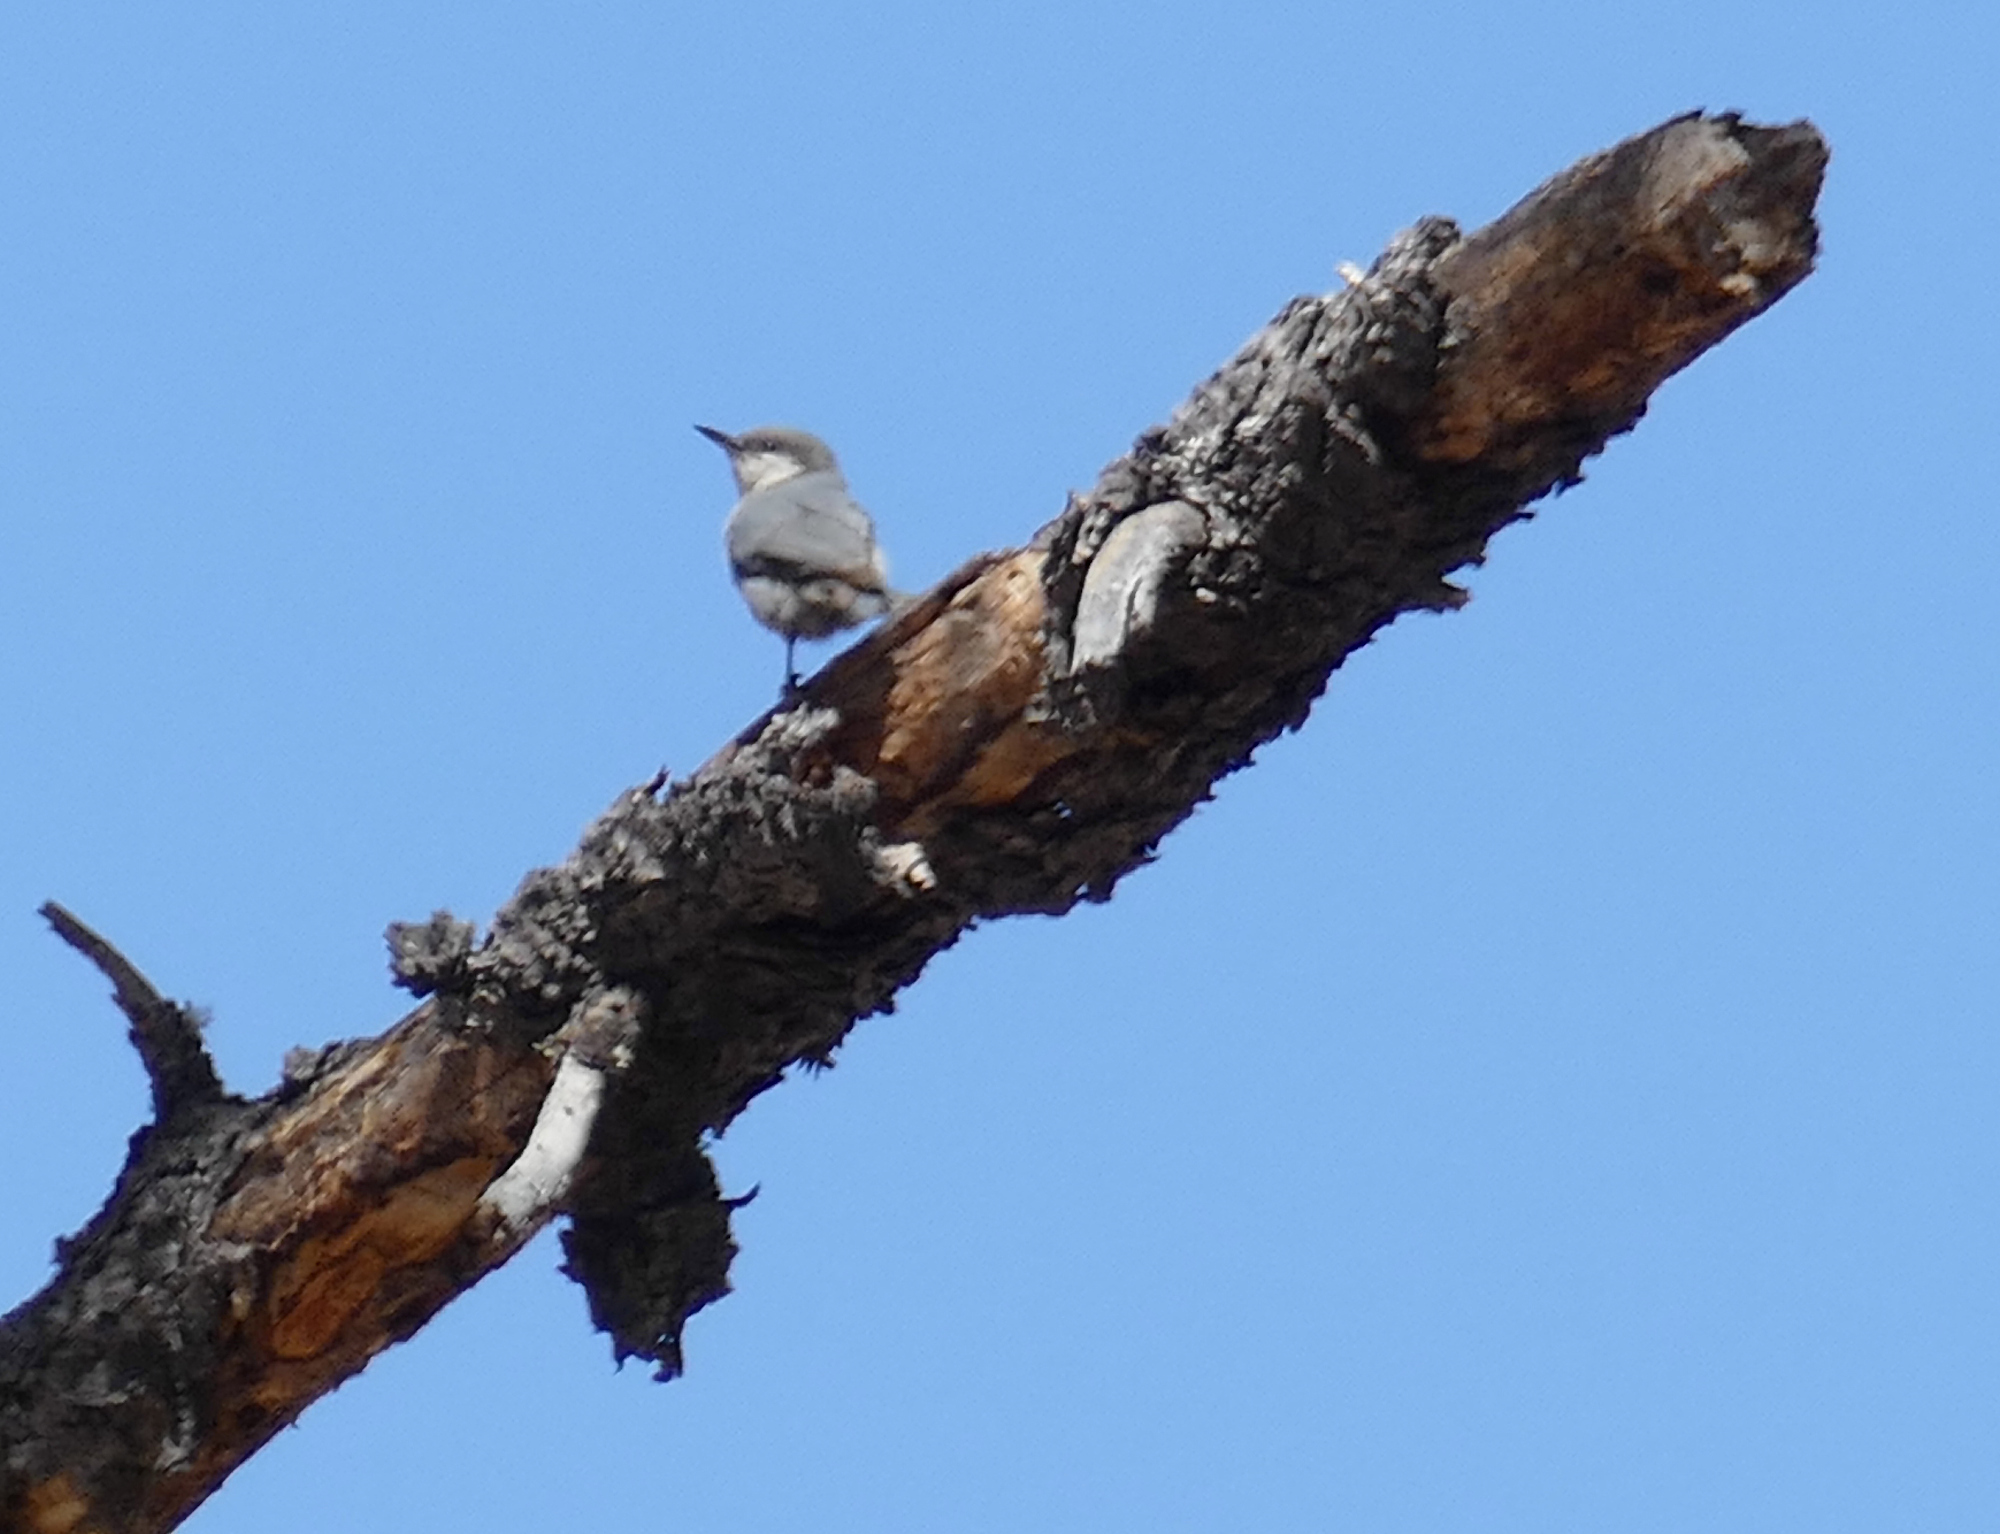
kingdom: Animalia
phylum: Chordata
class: Aves
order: Passeriformes
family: Sittidae
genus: Sitta
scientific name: Sitta pygmaea
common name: Pygmy nuthatch
